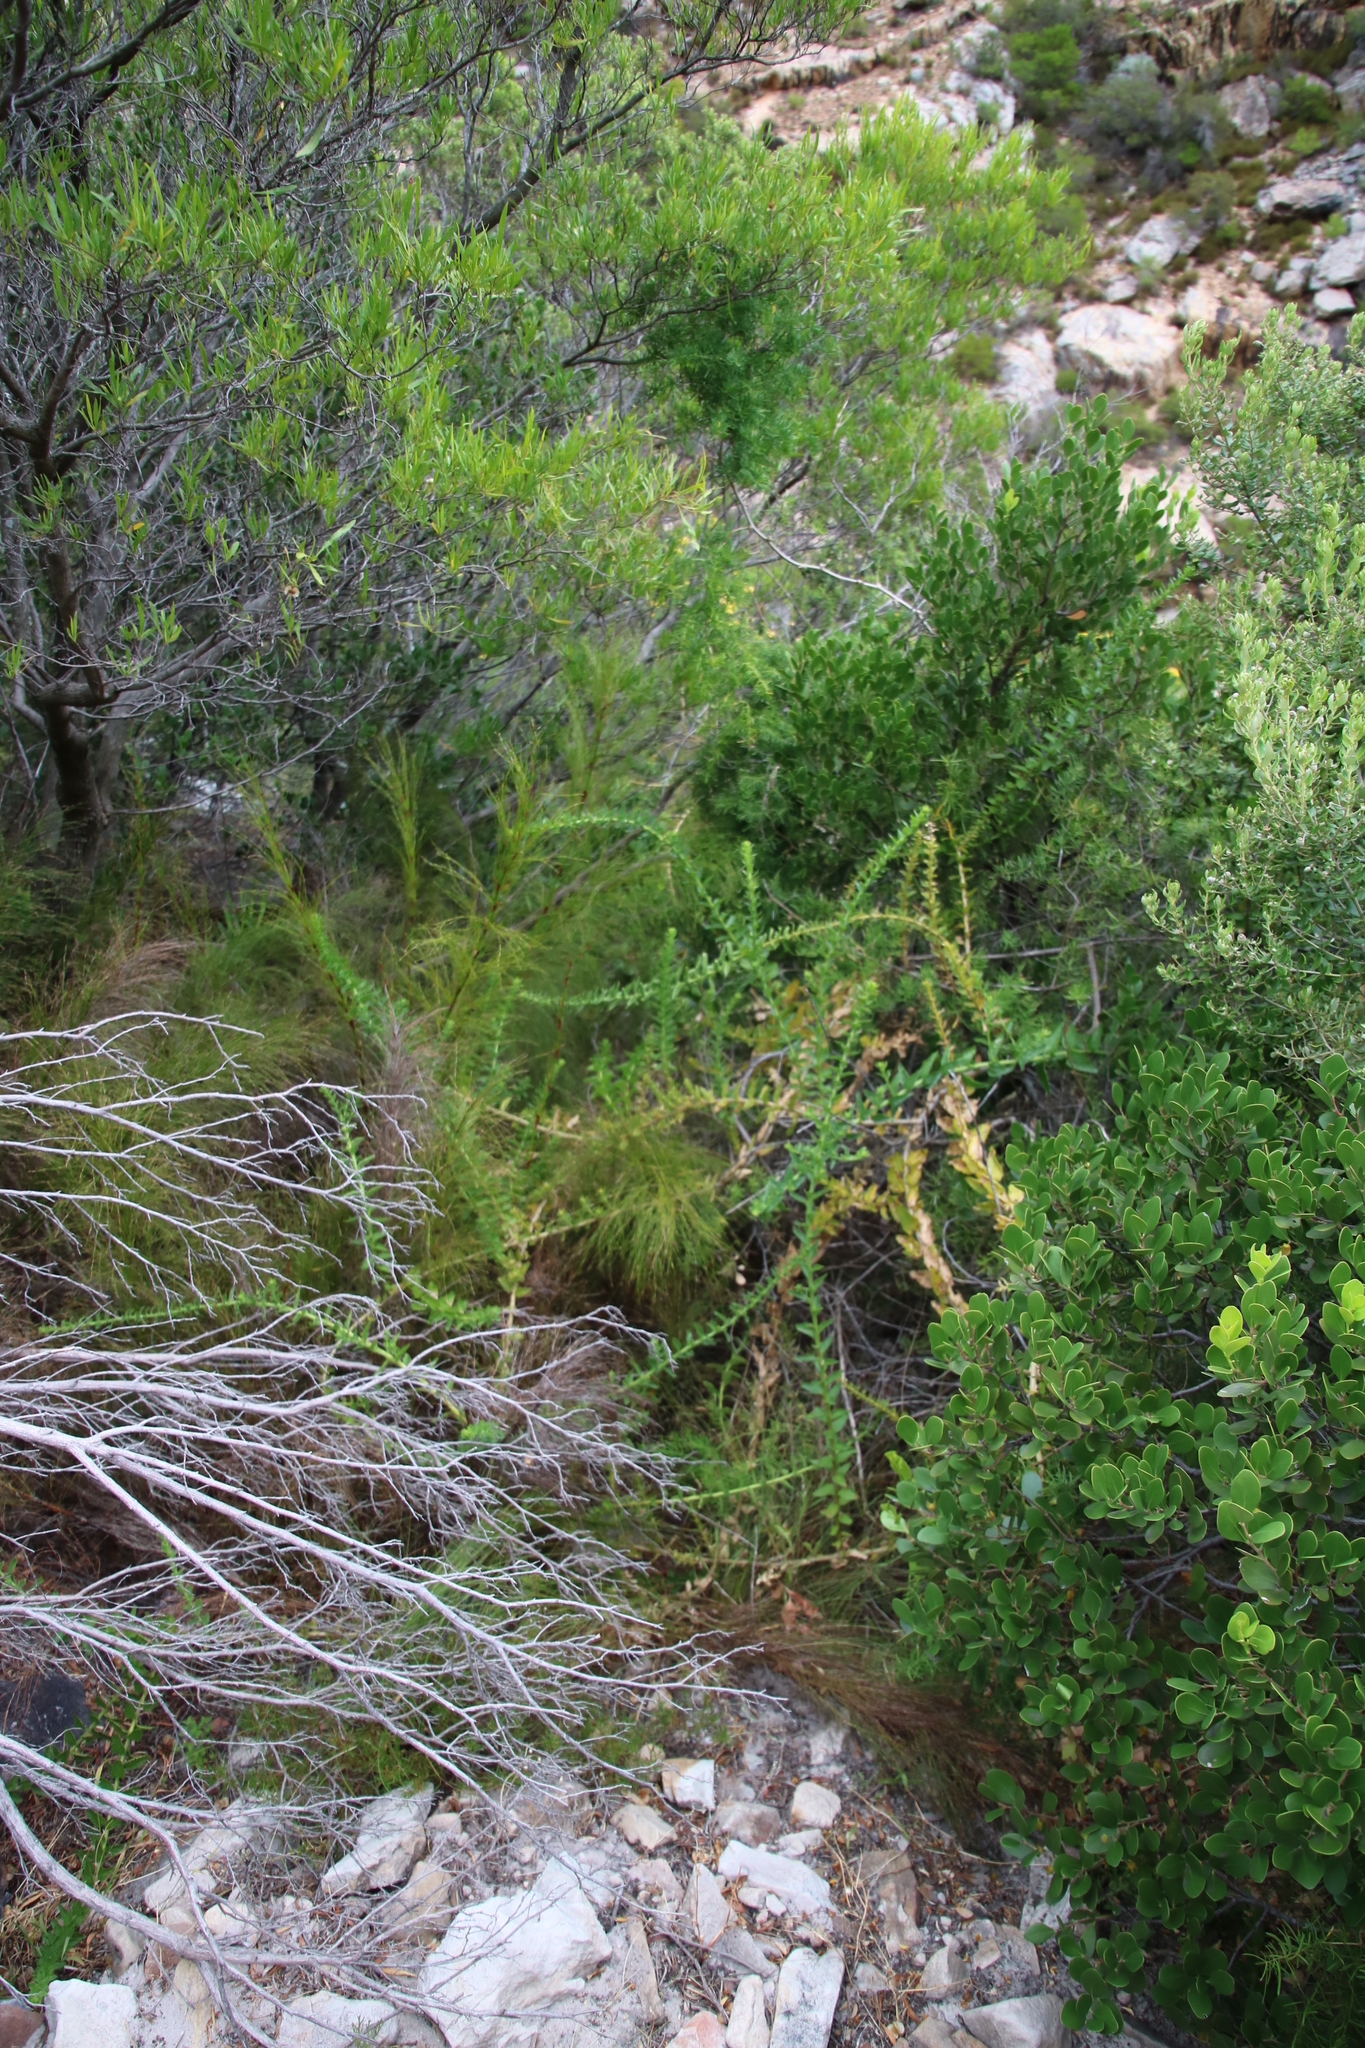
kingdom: Plantae
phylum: Tracheophyta
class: Magnoliopsida
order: Lamiales
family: Scrophulariaceae
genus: Oftia
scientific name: Oftia africana
